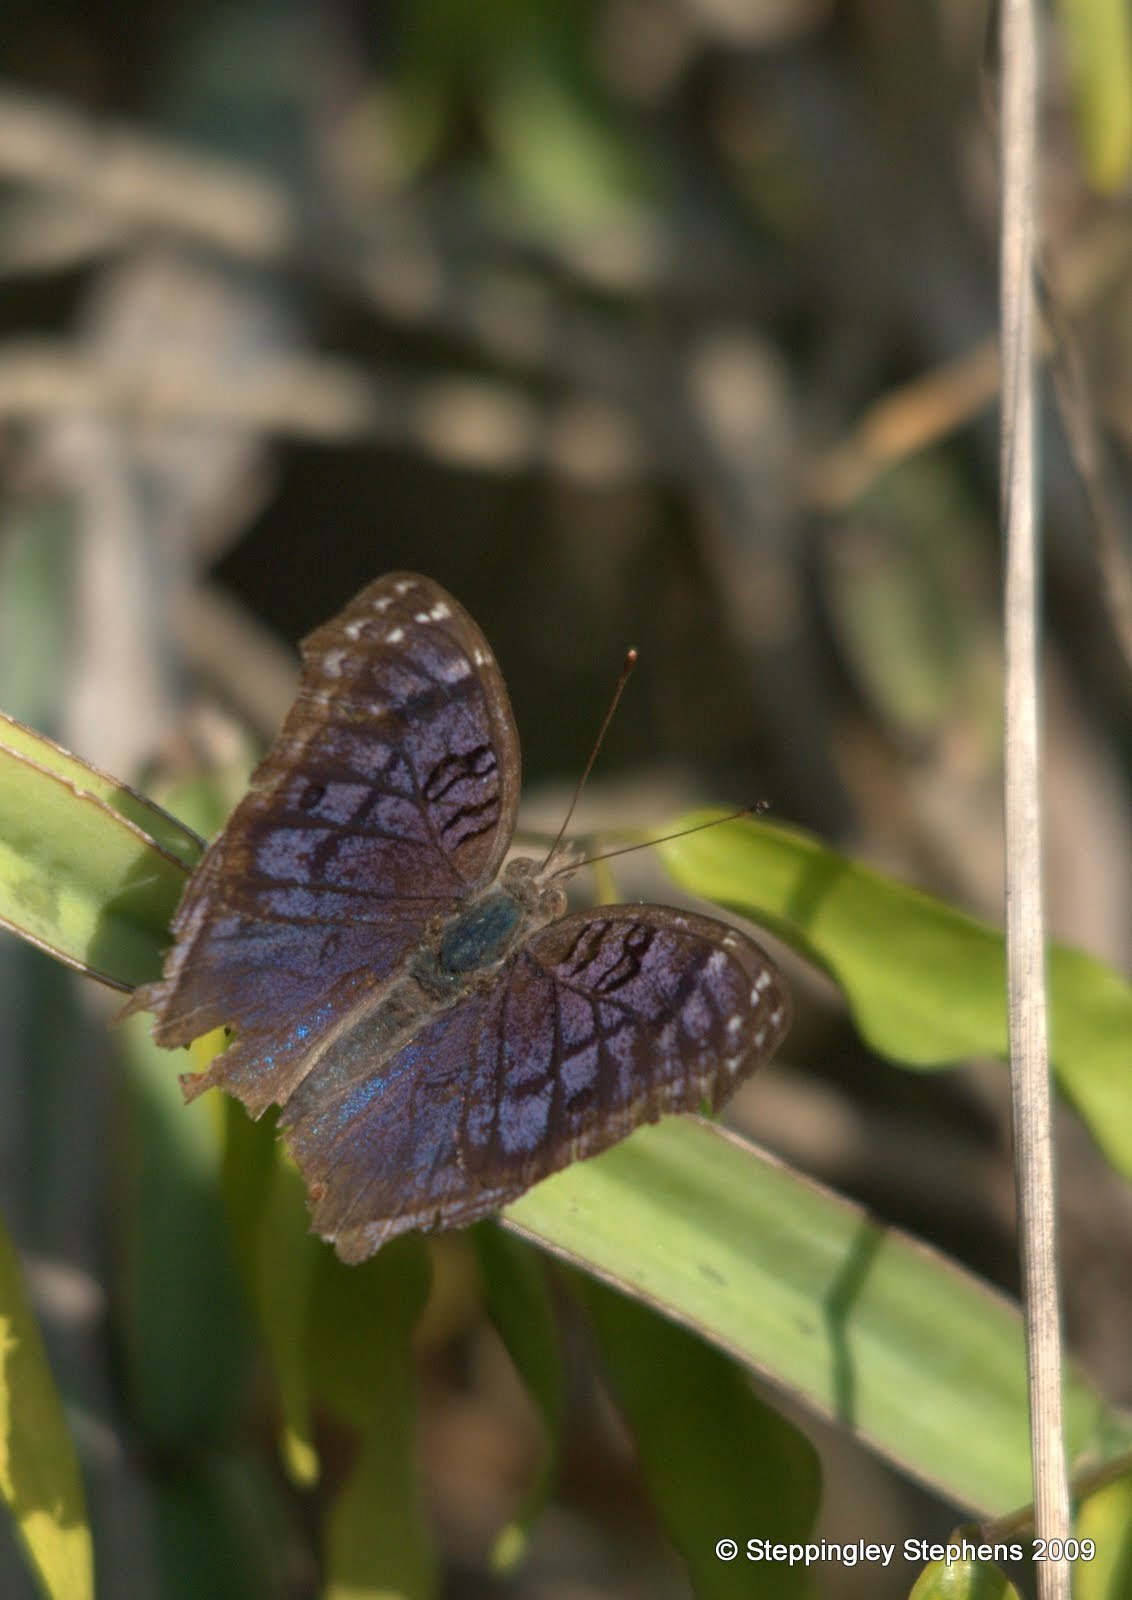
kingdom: Animalia
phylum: Arthropoda
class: Insecta
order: Lepidoptera
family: Nymphalidae
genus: Junonia
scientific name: Junonia rhadama
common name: Royal blue pansy
